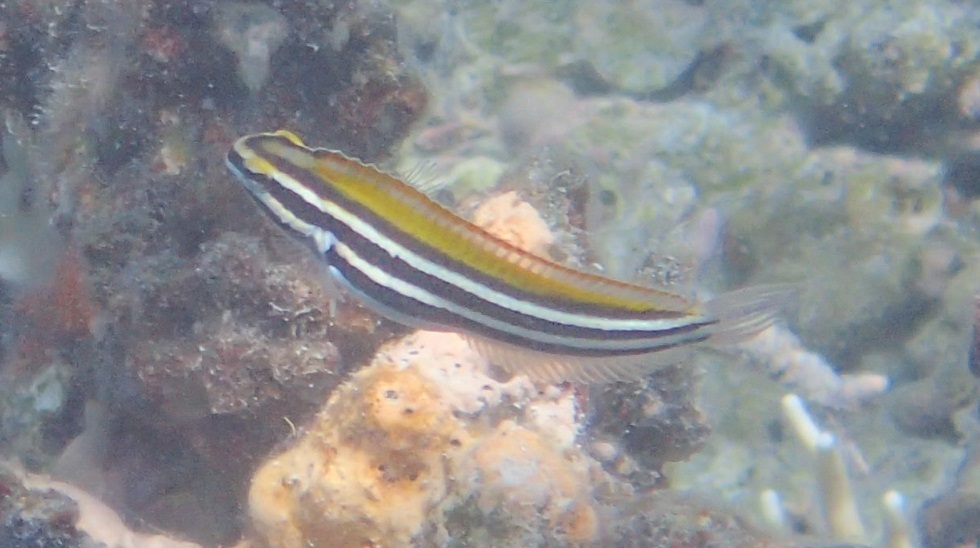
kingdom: Animalia
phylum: Chordata
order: Perciformes
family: Blenniidae
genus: Petroscirtes
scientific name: Petroscirtes fallax
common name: Deceiver fangblenny
